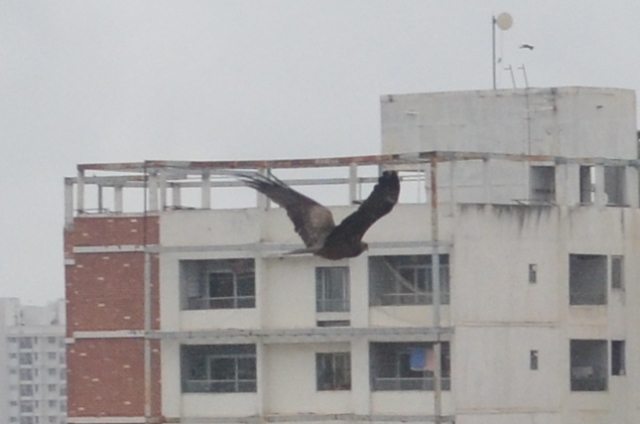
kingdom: Animalia
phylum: Chordata
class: Aves
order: Accipitriformes
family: Accipitridae
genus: Milvus
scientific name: Milvus migrans
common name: Black kite
